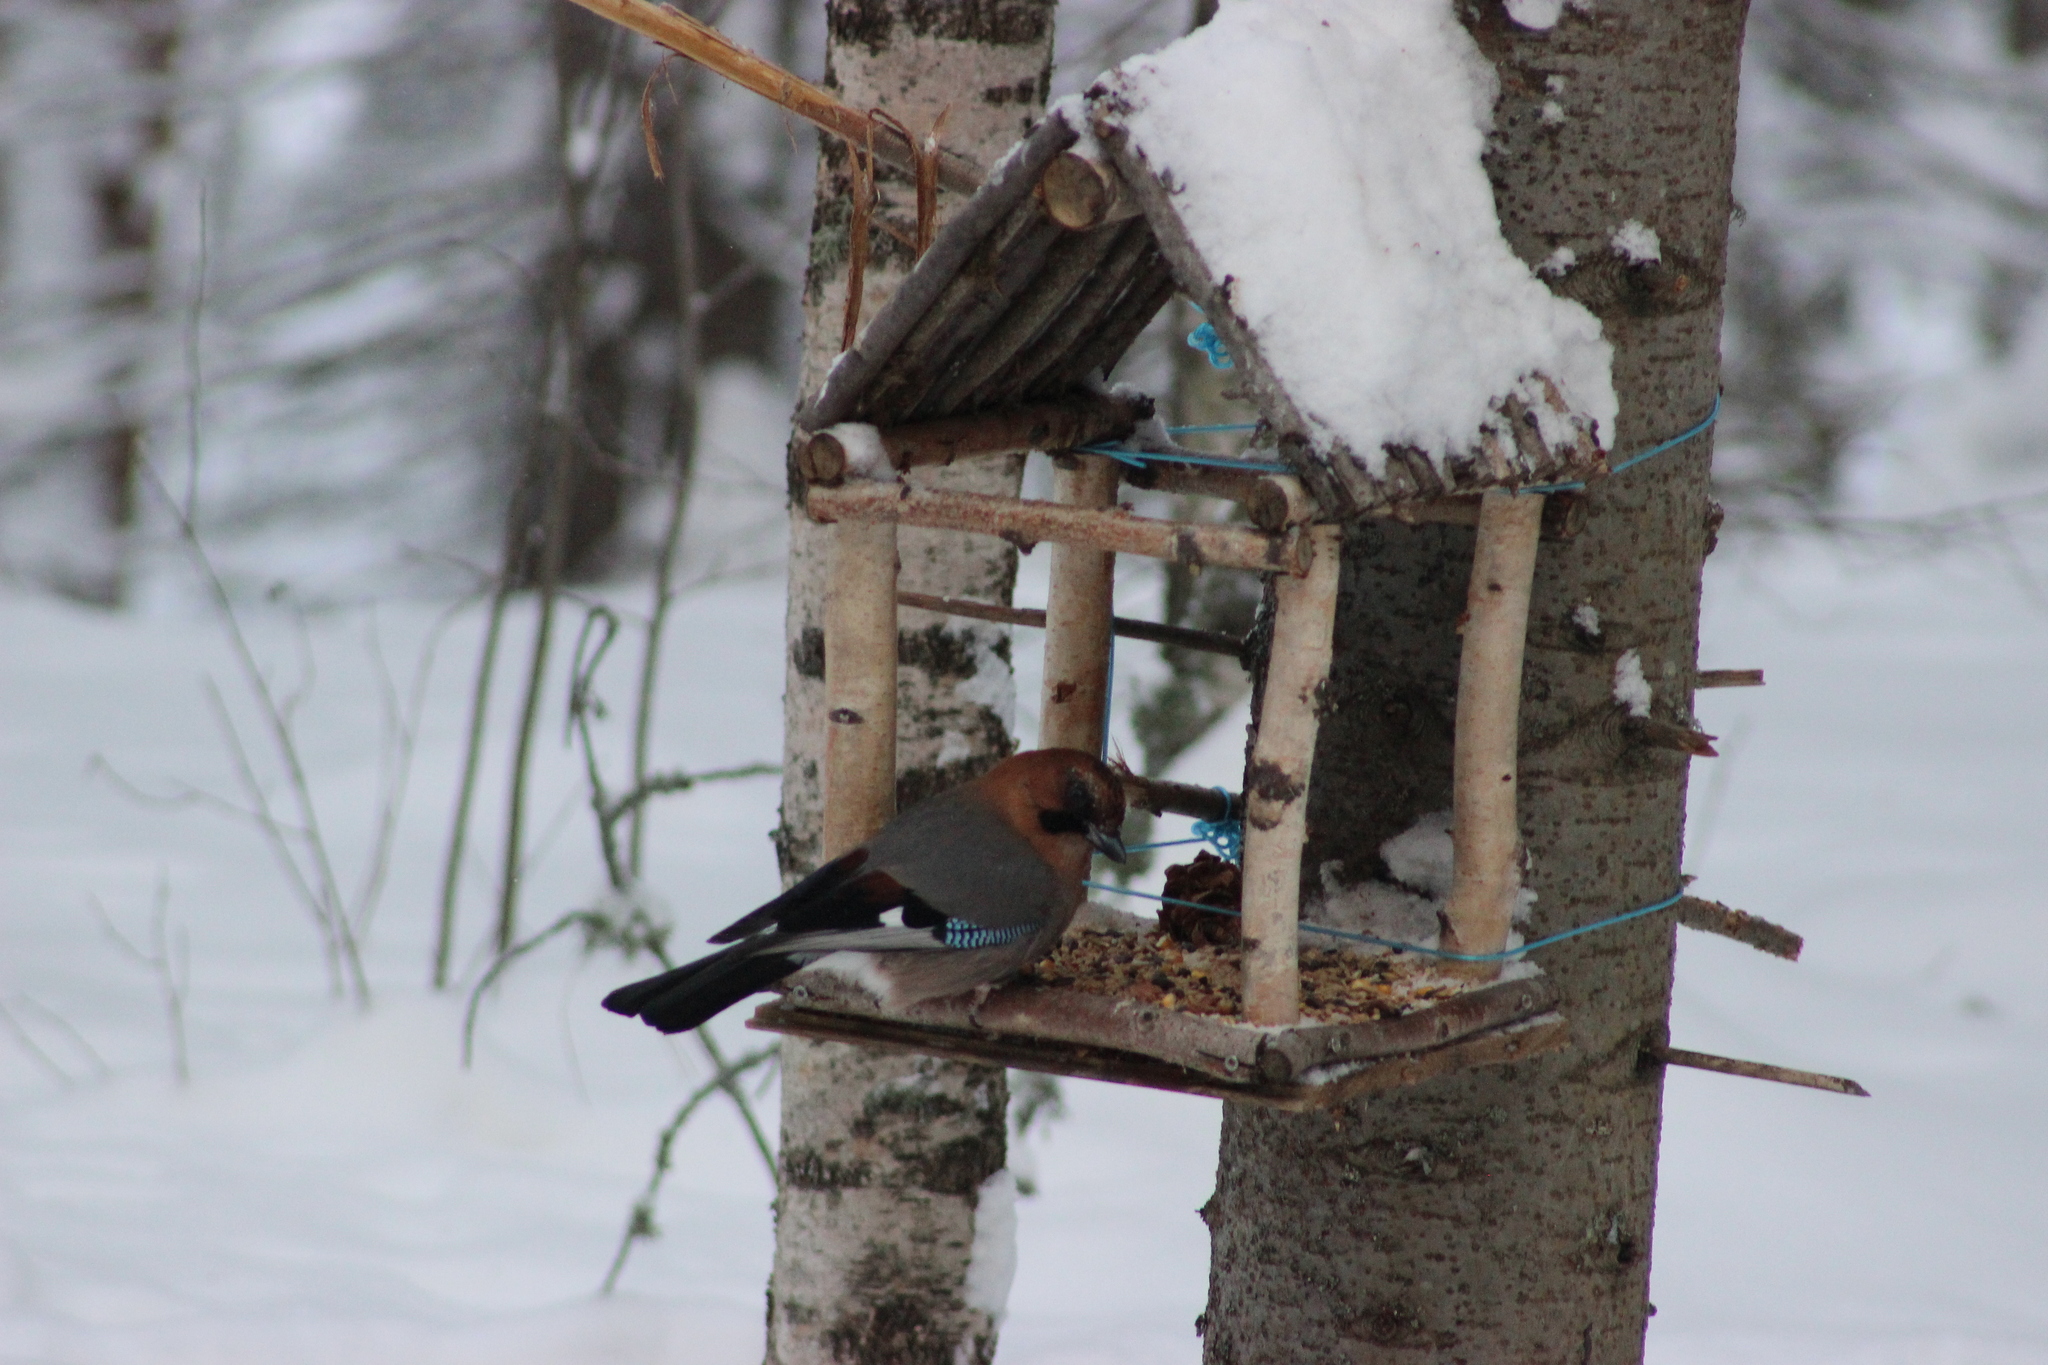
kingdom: Animalia
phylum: Chordata
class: Aves
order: Passeriformes
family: Corvidae
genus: Garrulus
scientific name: Garrulus glandarius
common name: Eurasian jay
